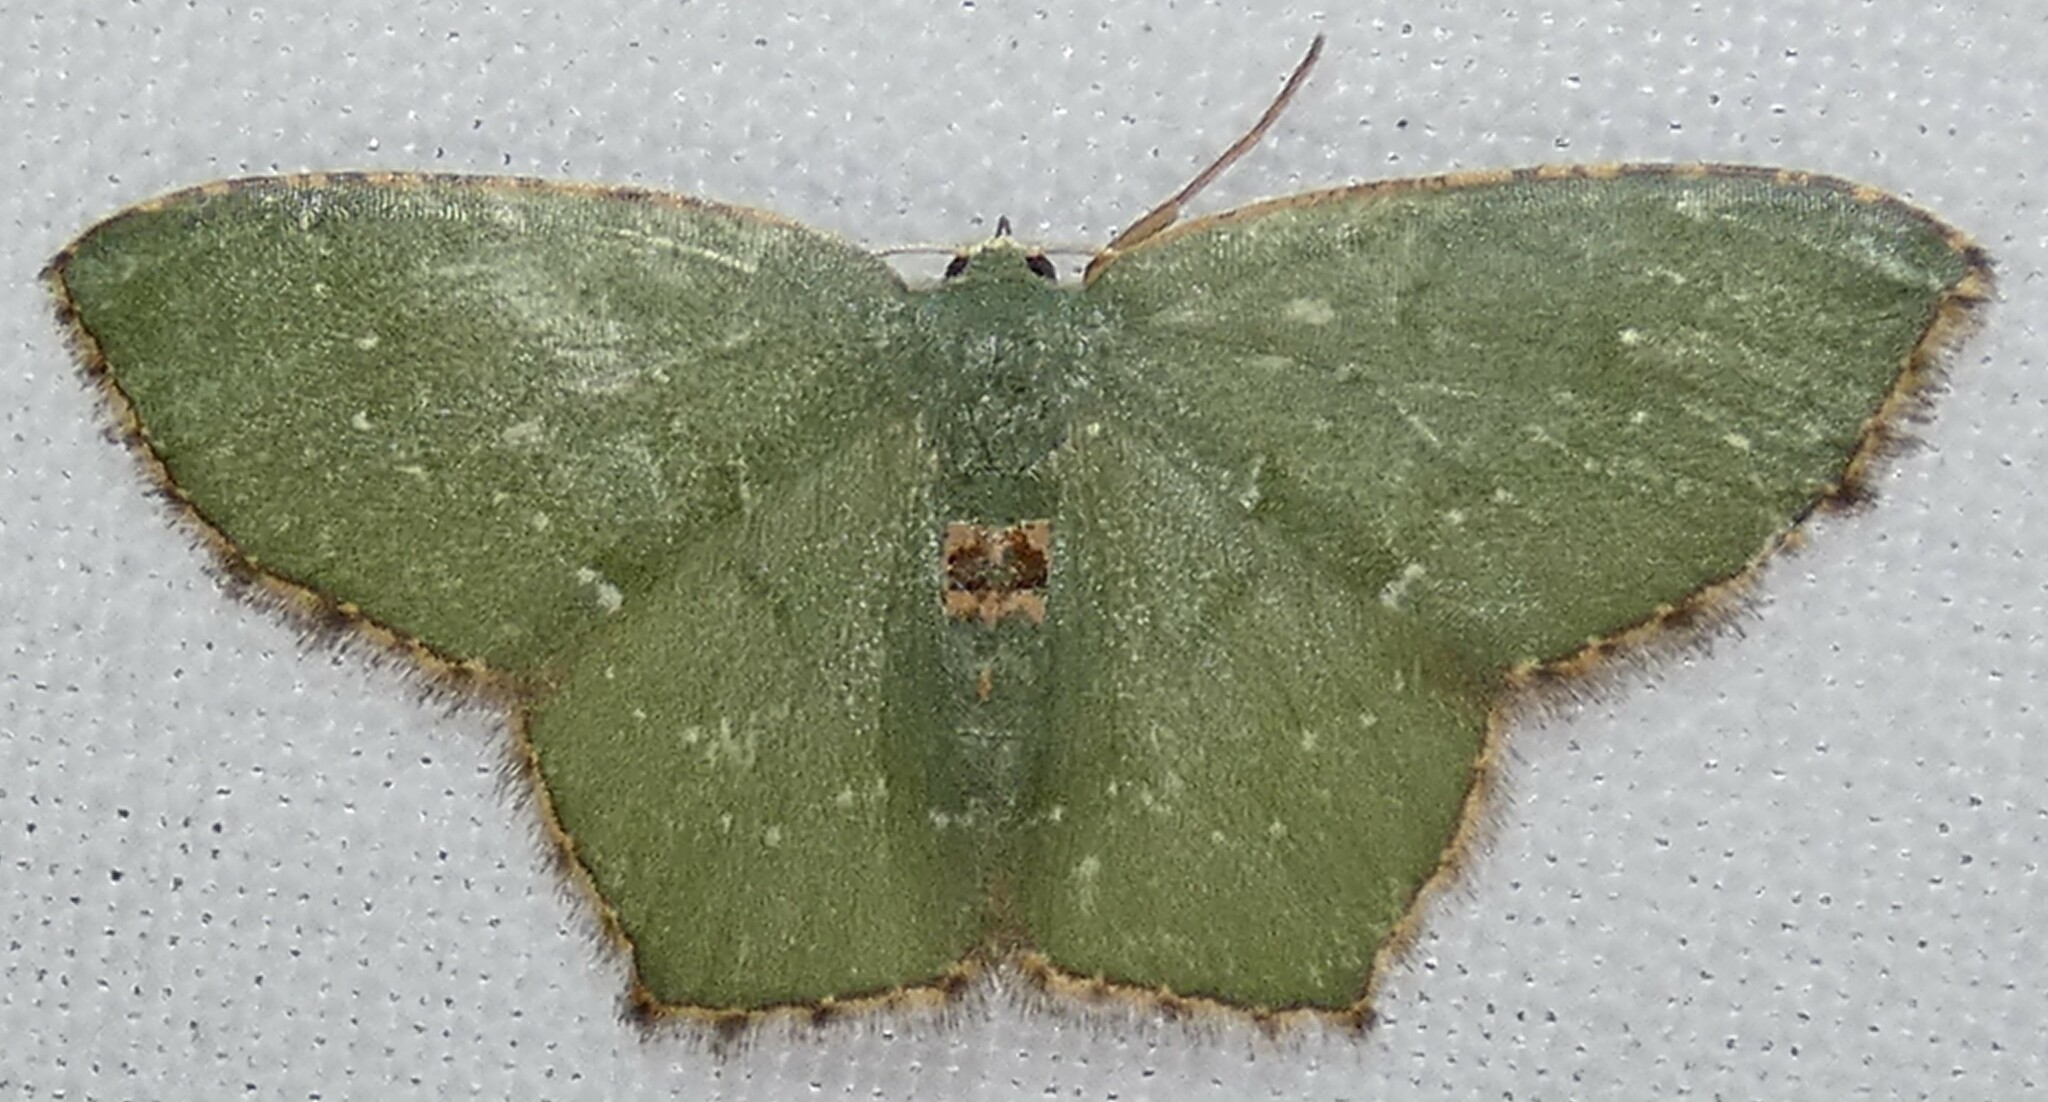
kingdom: Animalia
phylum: Arthropoda
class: Insecta
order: Lepidoptera
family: Geometridae
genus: Chloropteryx
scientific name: Chloropteryx tepperaria
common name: Angle winged emerald moth
